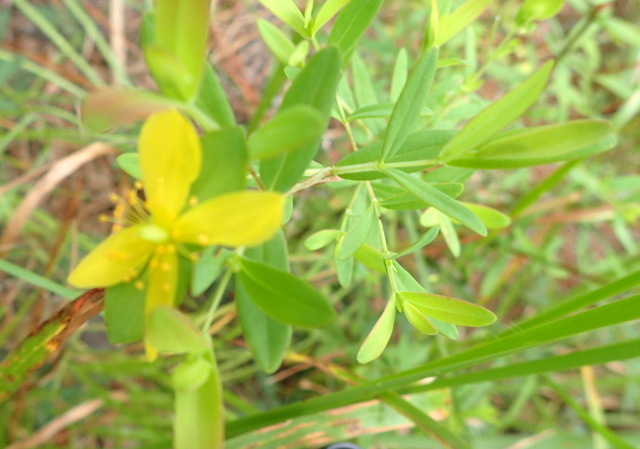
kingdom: Plantae
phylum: Tracheophyta
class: Magnoliopsida
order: Malpighiales
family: Hypericaceae
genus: Hypericum
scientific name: Hypericum hypericoides
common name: St. andrew's cross
